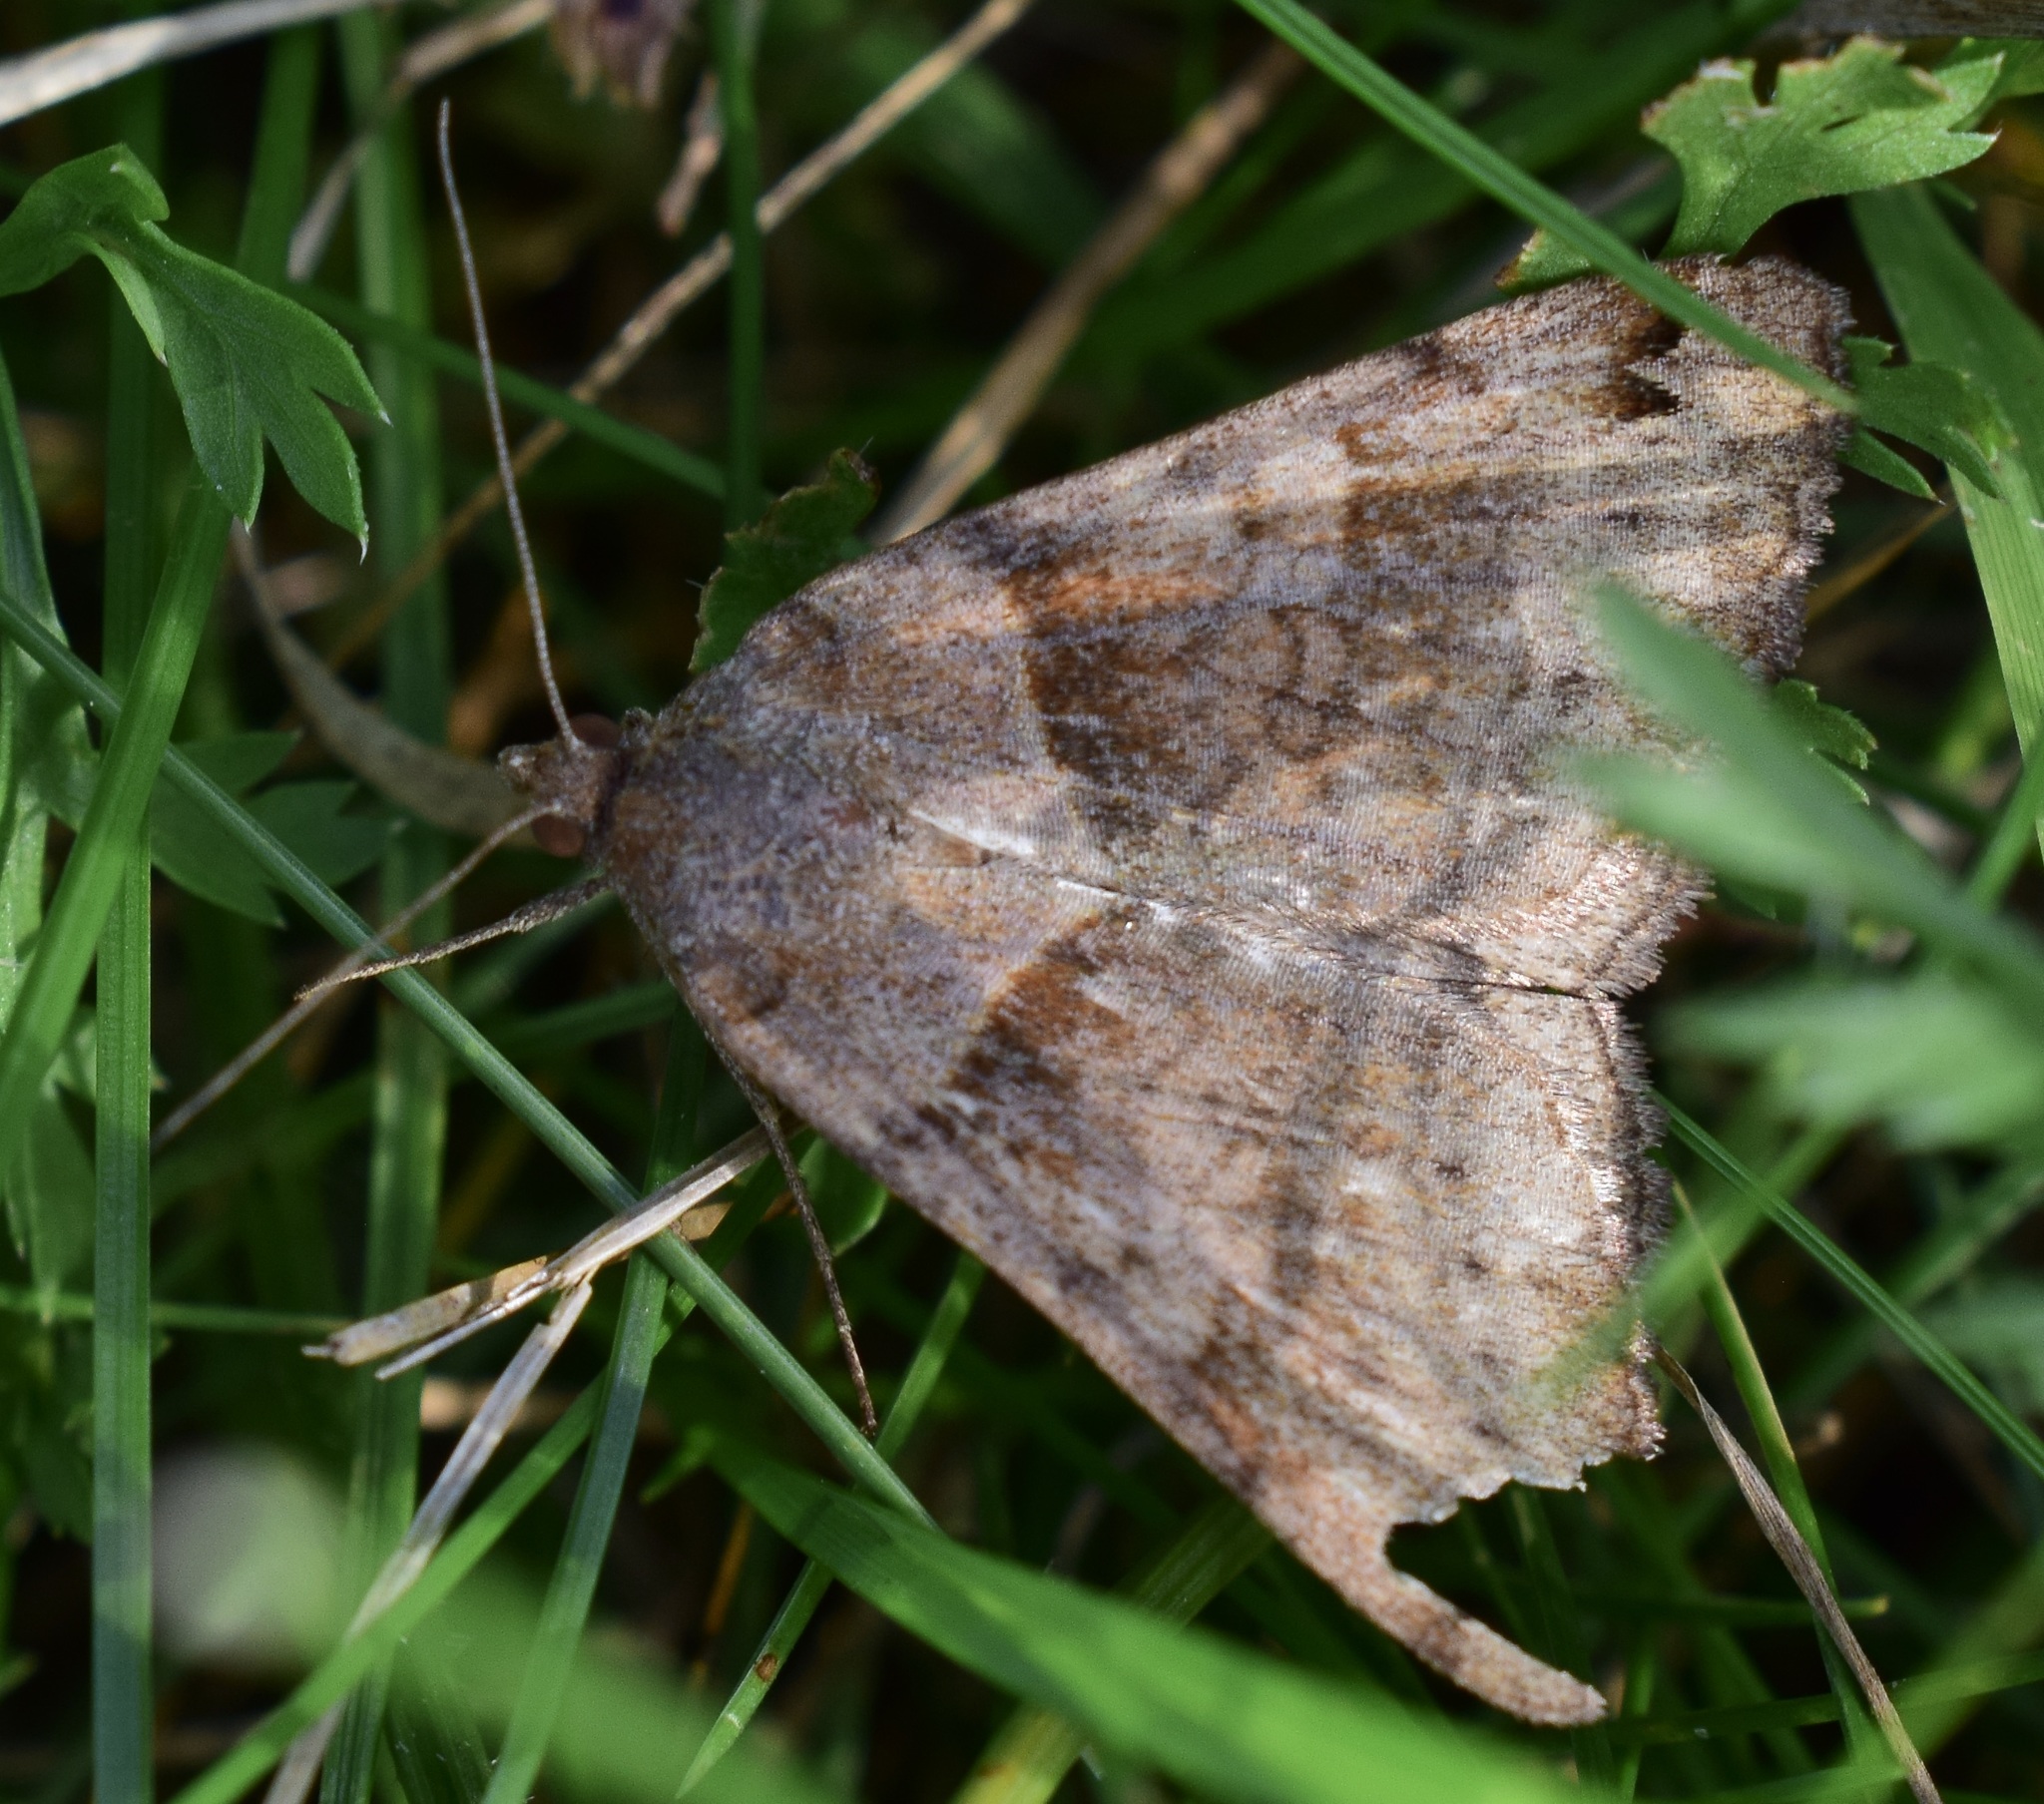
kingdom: Animalia
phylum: Arthropoda
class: Insecta
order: Lepidoptera
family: Erebidae
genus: Caenurgina
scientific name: Caenurgina crassiuscula
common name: Double-barred
